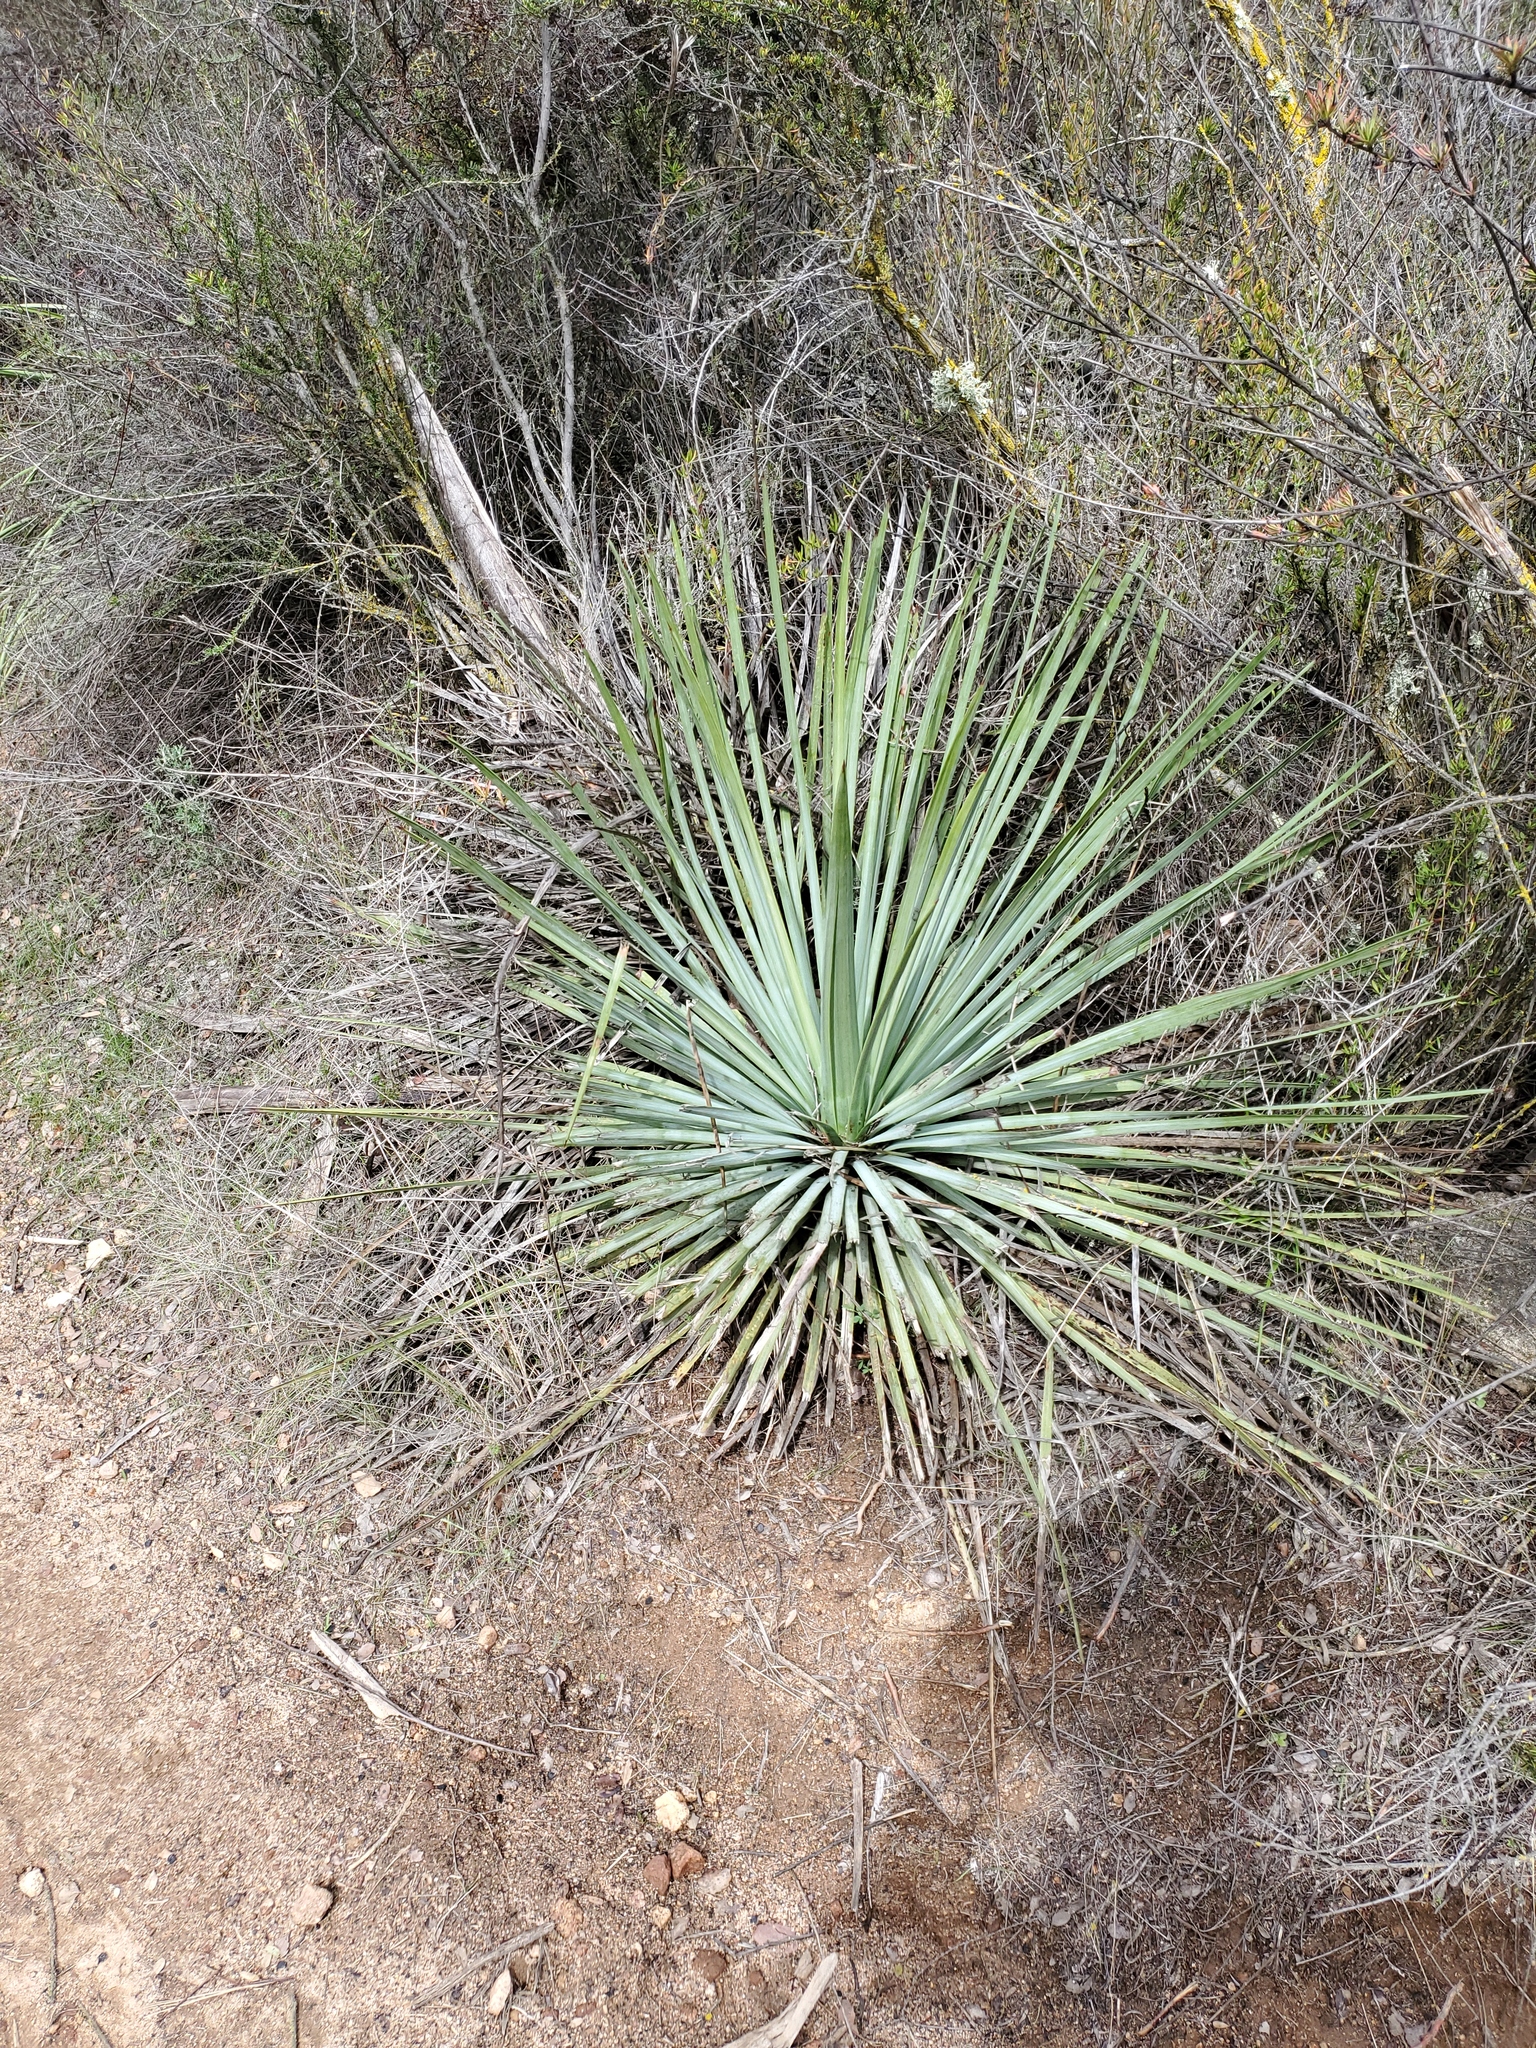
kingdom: Plantae
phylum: Tracheophyta
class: Liliopsida
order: Asparagales
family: Asparagaceae
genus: Hesperoyucca
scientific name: Hesperoyucca whipplei
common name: Our lord's-candle
